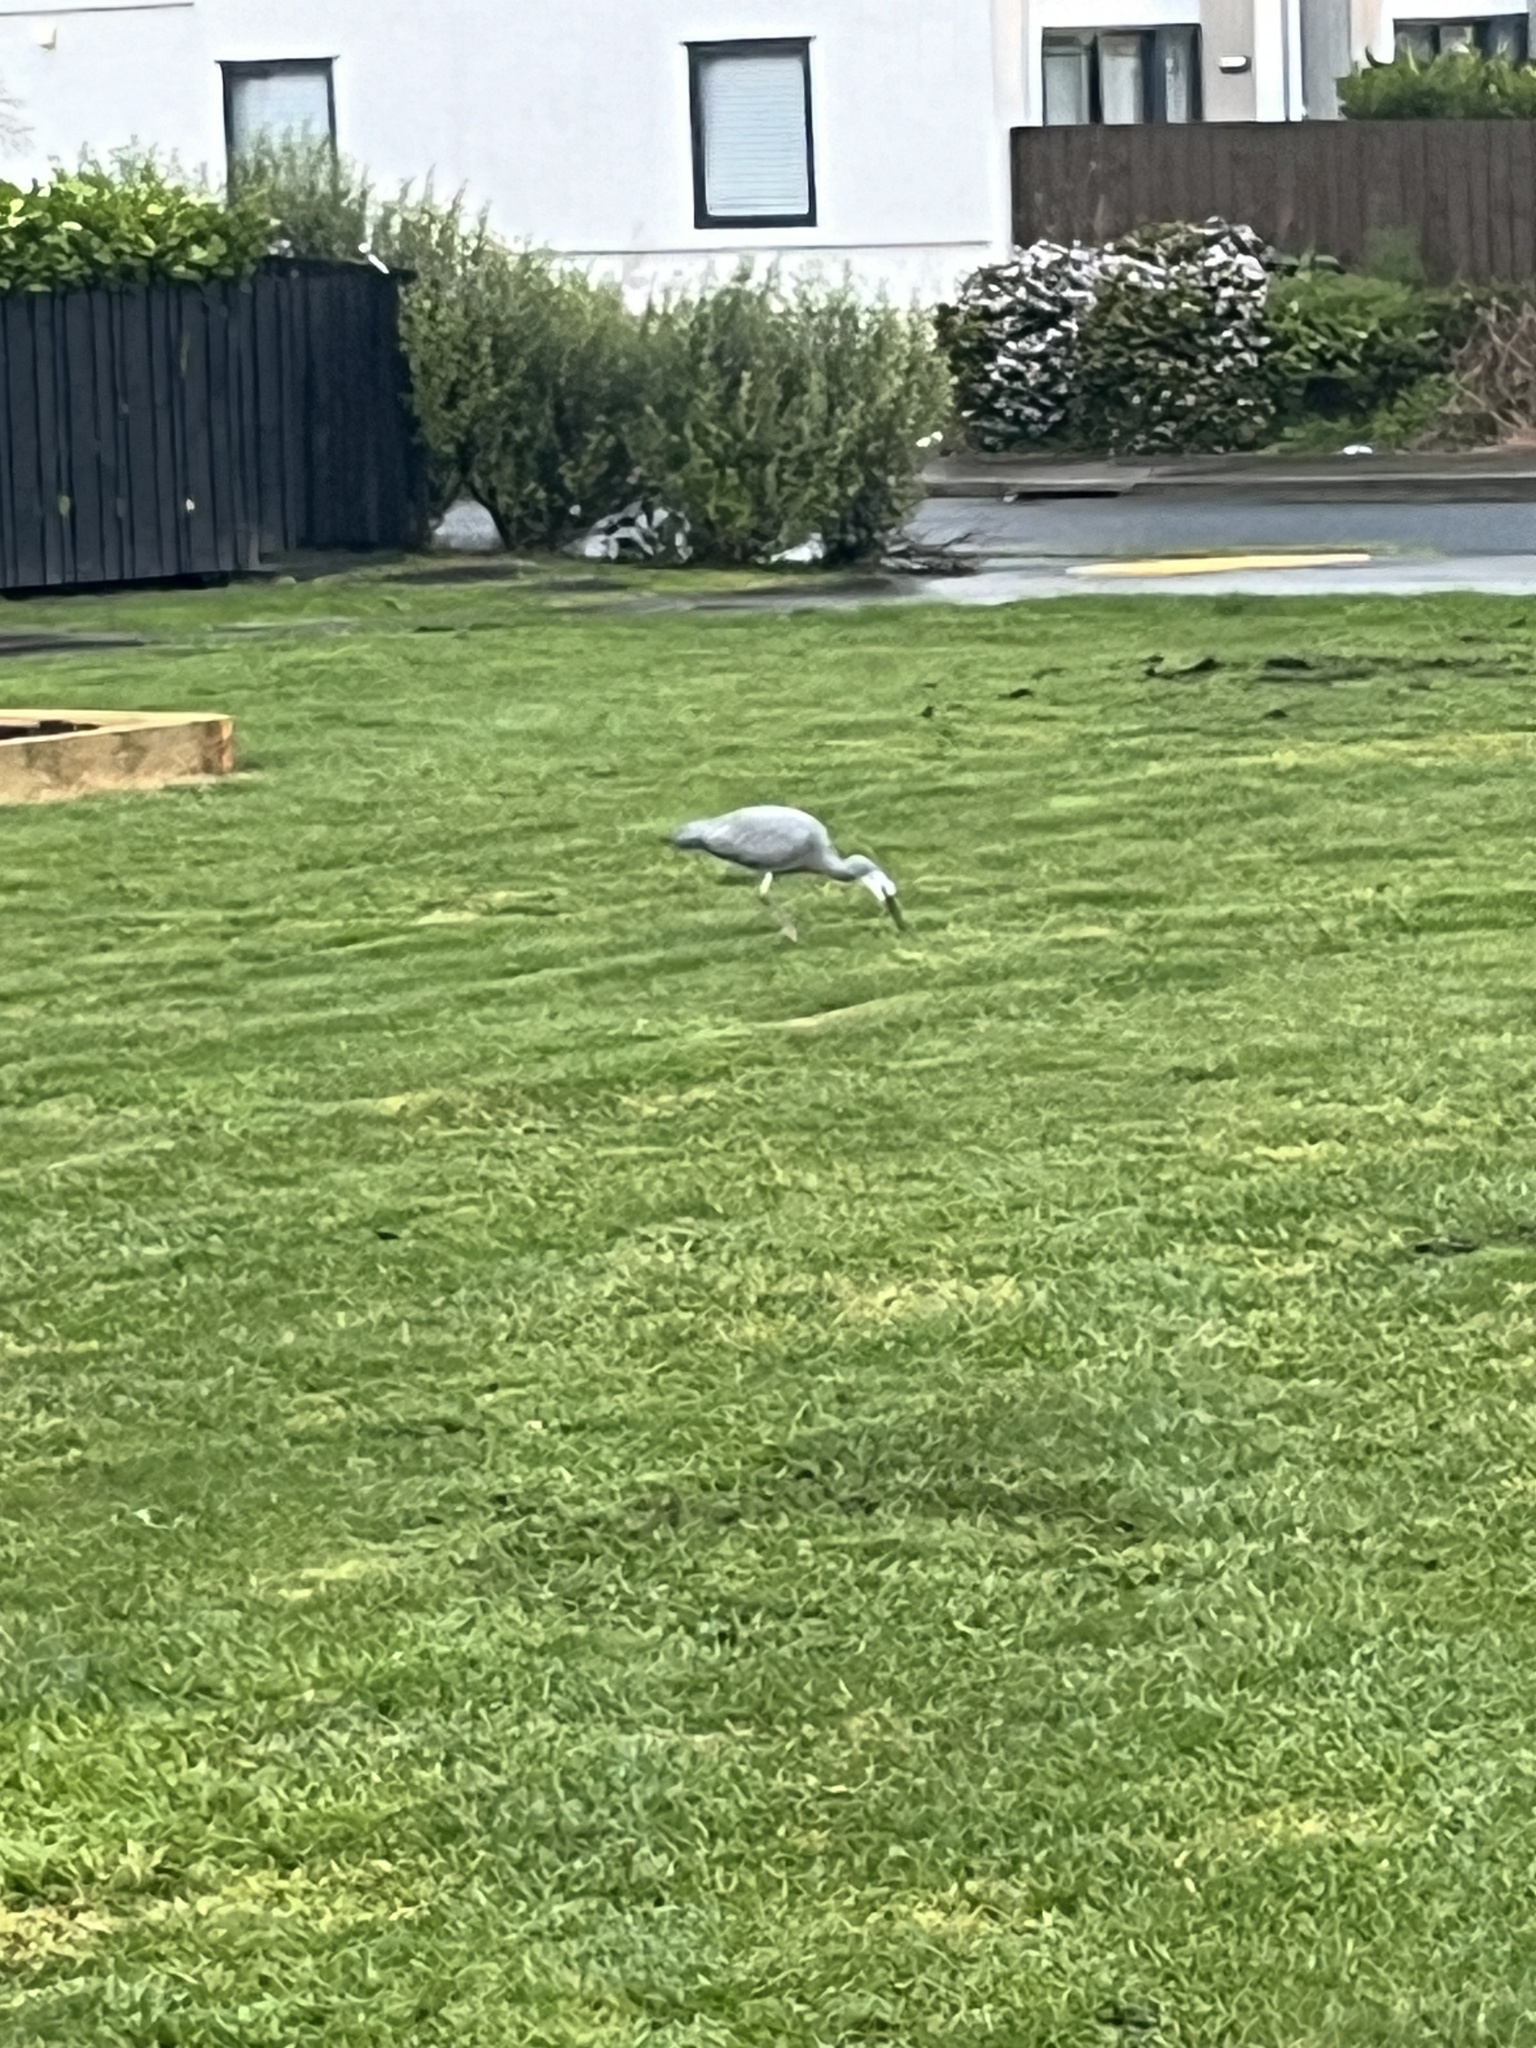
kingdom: Animalia
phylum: Chordata
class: Aves
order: Pelecaniformes
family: Ardeidae
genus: Egretta
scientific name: Egretta novaehollandiae
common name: White-faced heron
